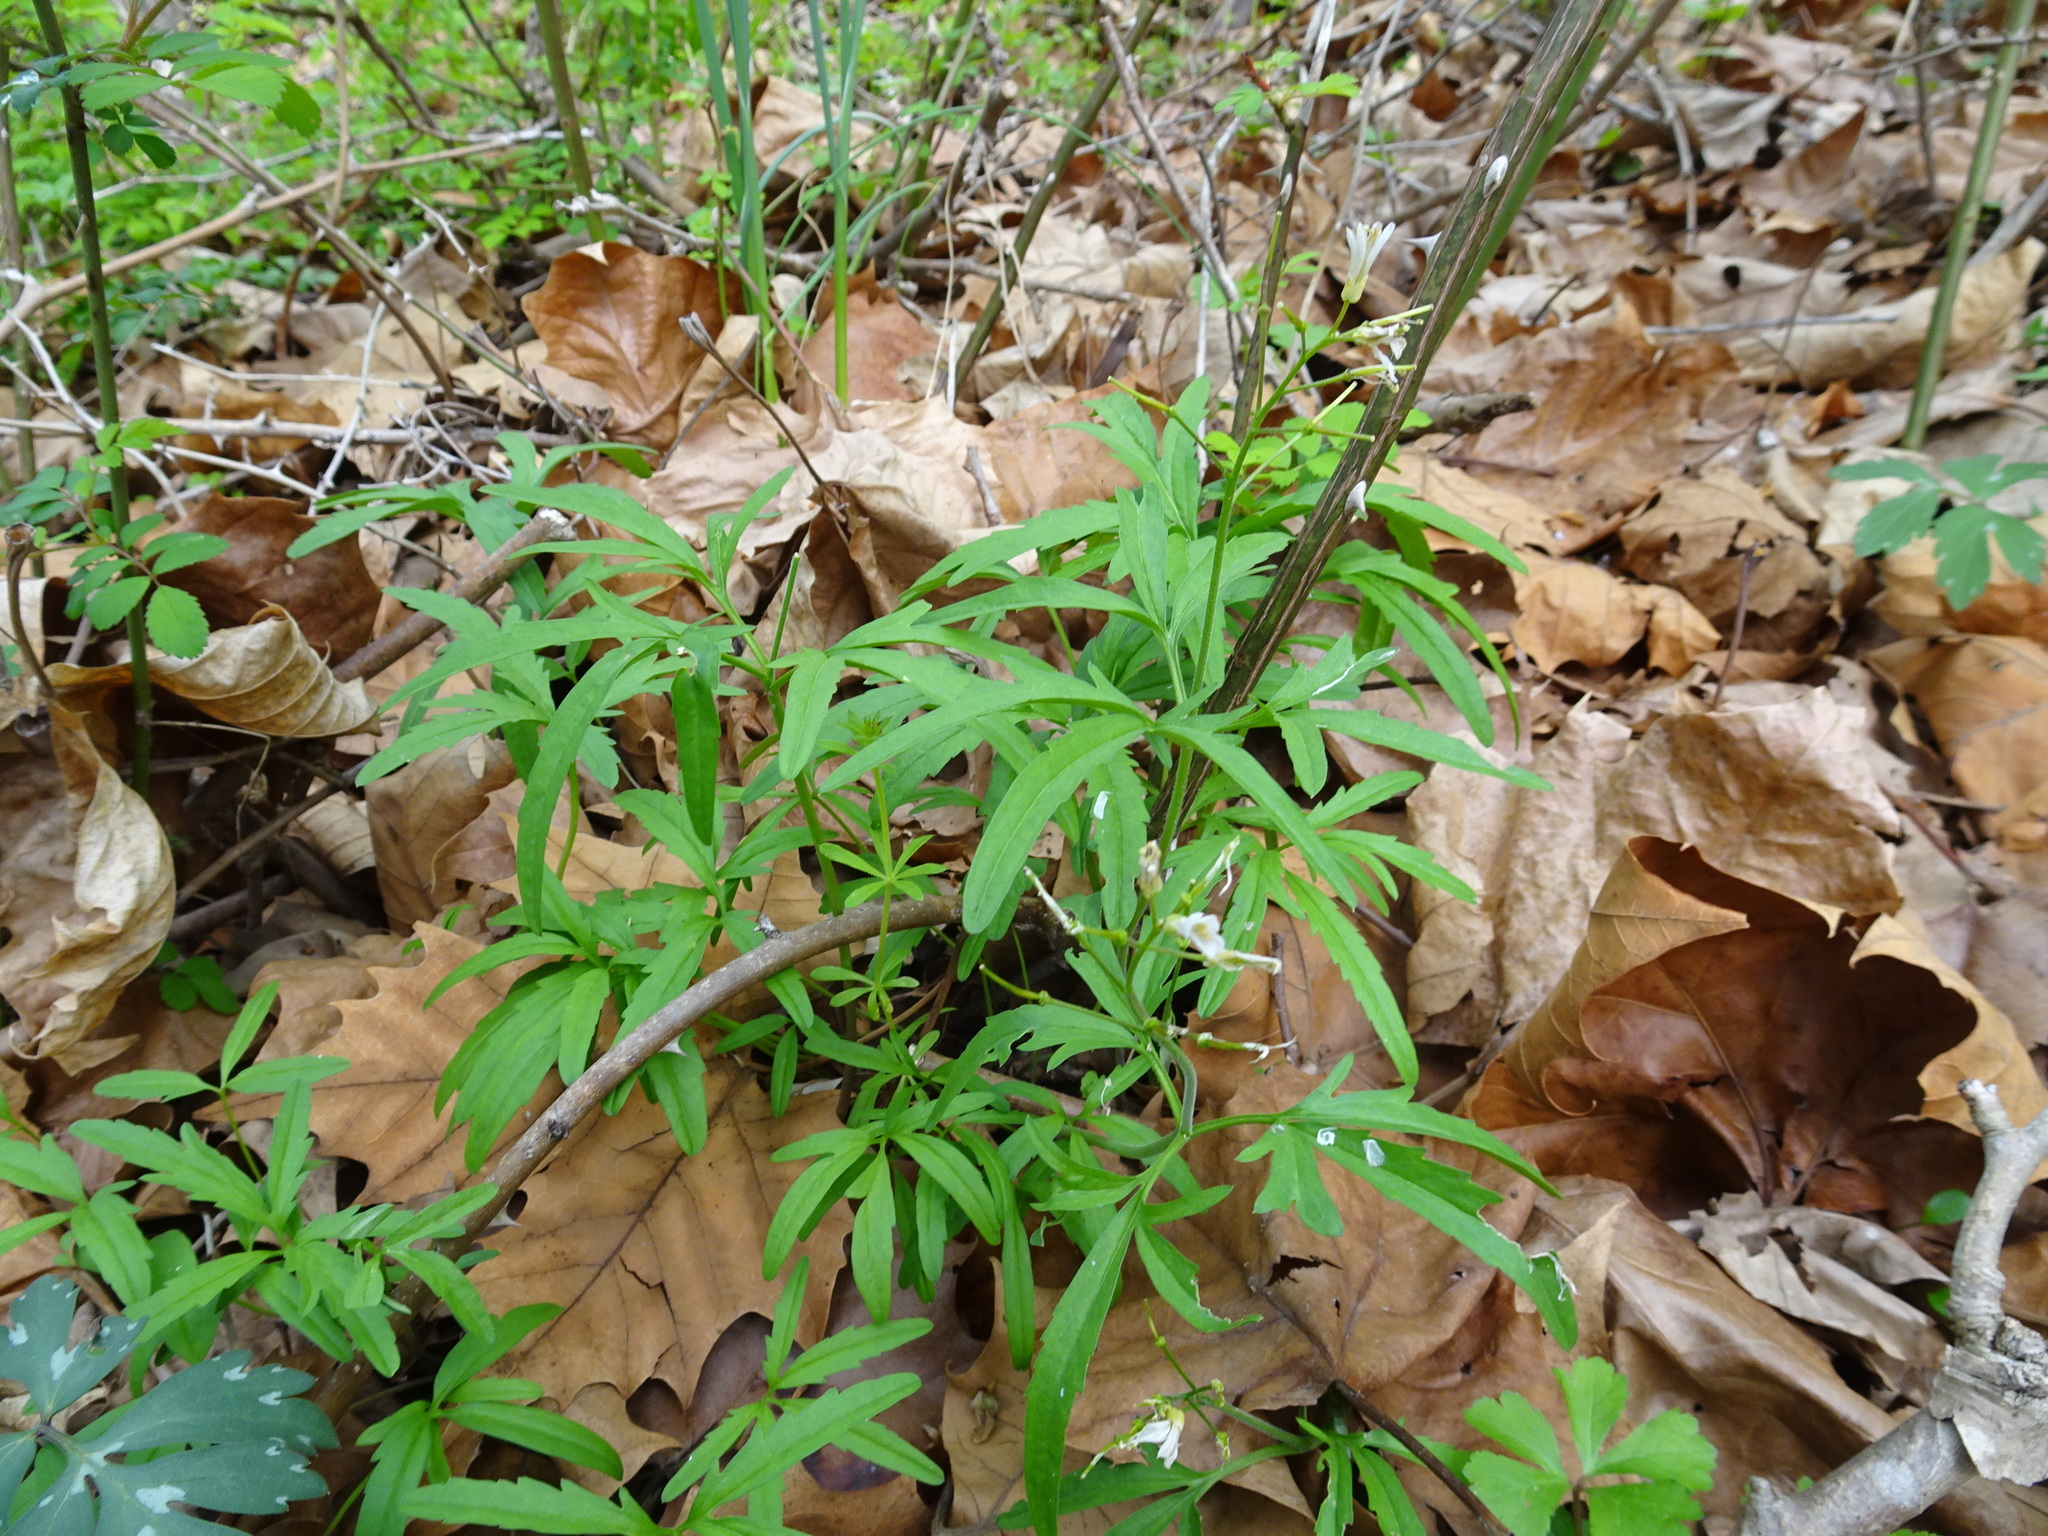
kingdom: Plantae
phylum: Tracheophyta
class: Magnoliopsida
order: Brassicales
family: Brassicaceae
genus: Cardamine
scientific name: Cardamine concatenata
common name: Cut-leaf toothcup
